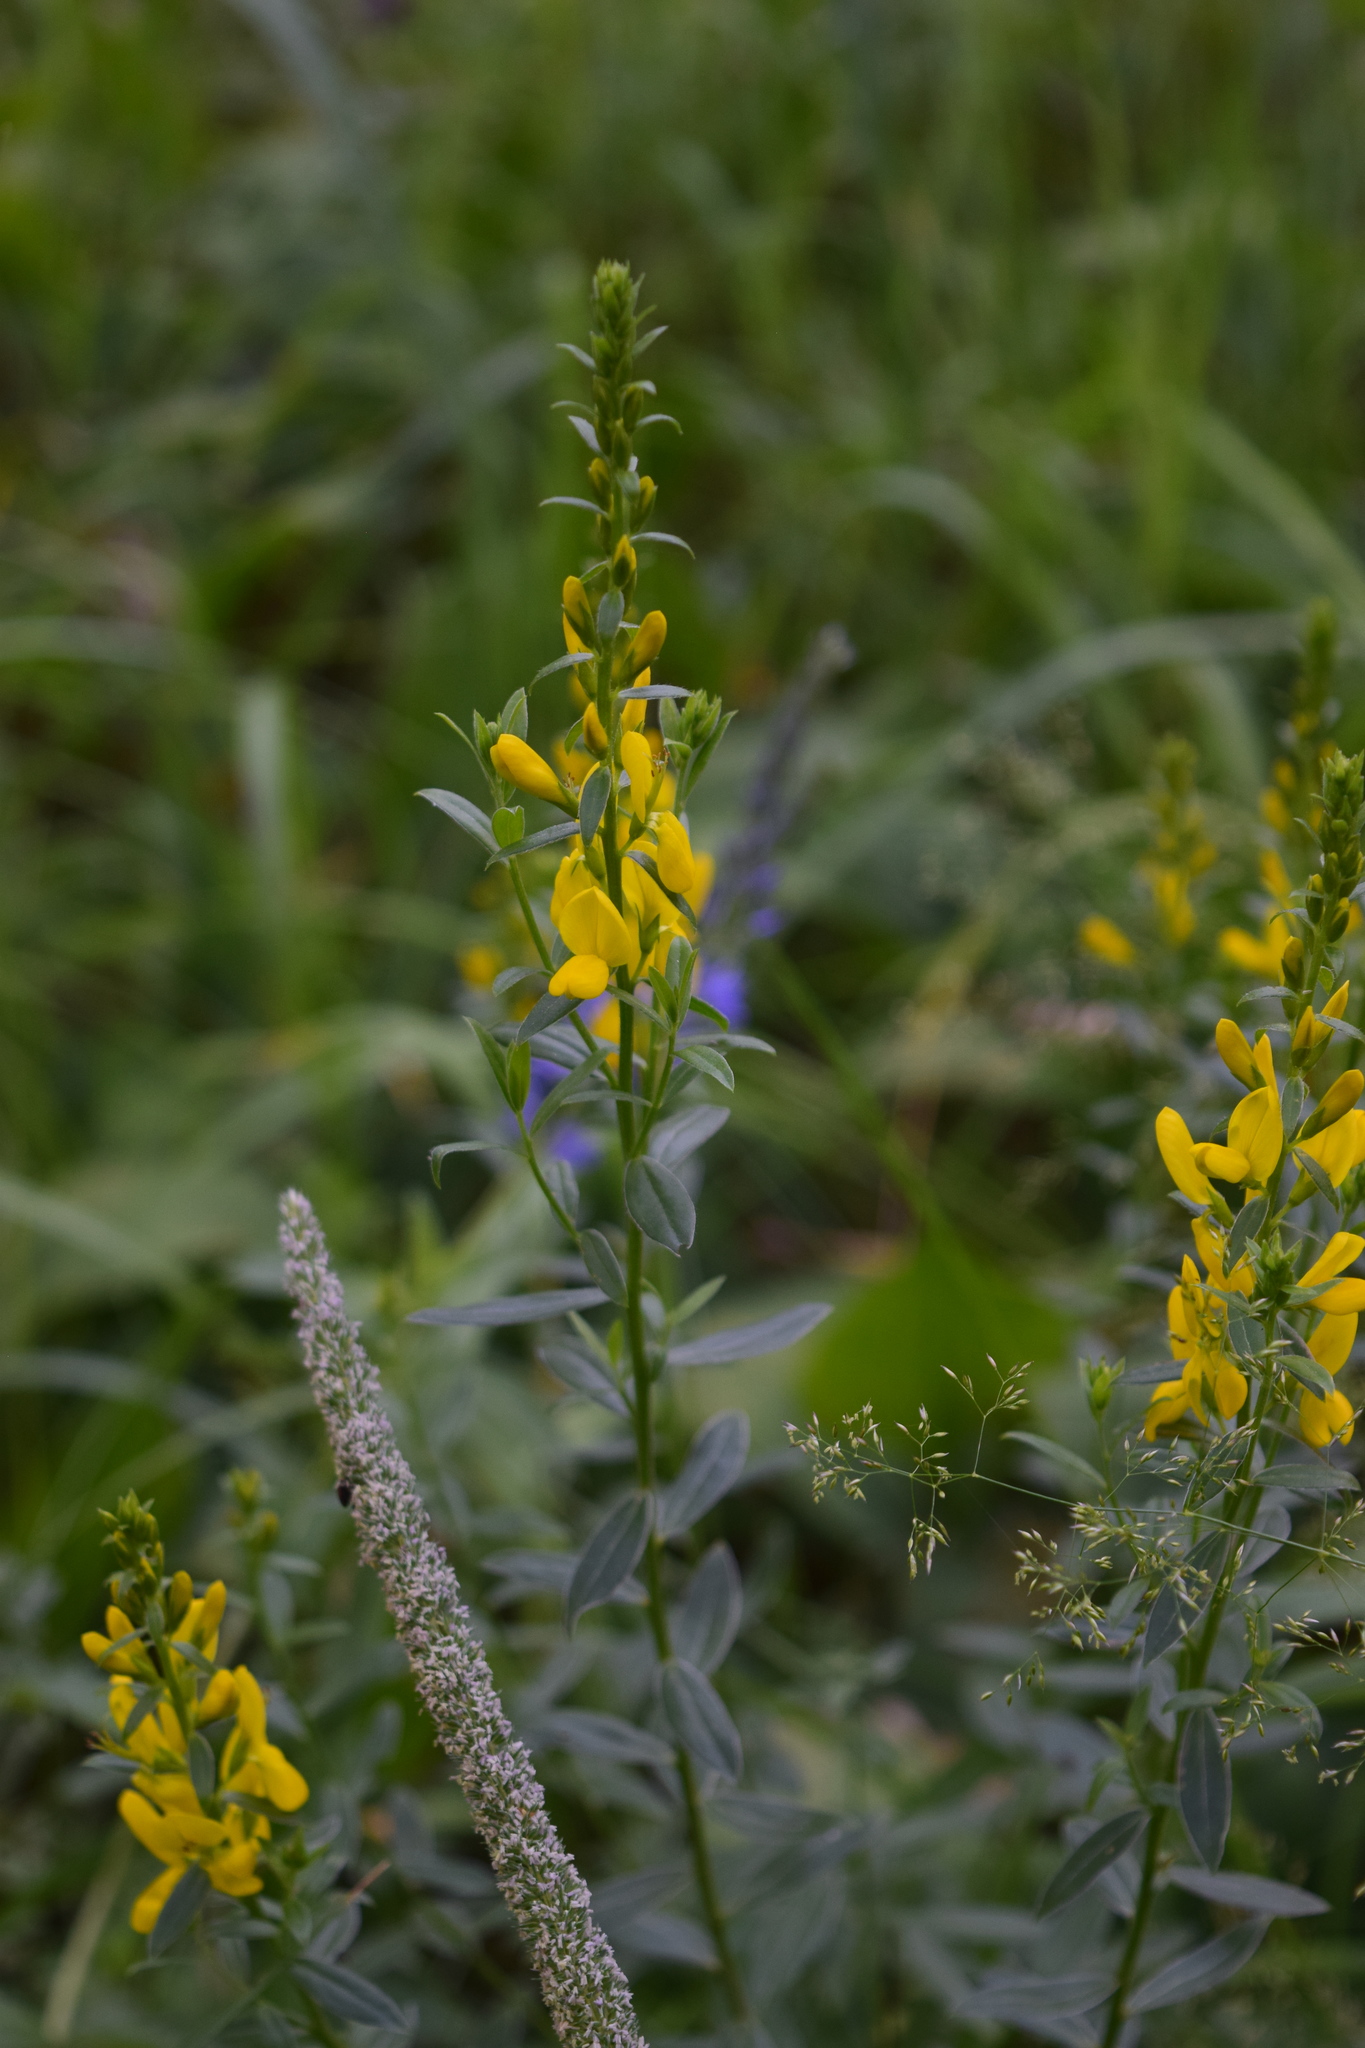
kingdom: Plantae
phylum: Tracheophyta
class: Magnoliopsida
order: Fabales
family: Fabaceae
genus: Genista
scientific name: Genista tinctoria
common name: Dyer's greenweed
